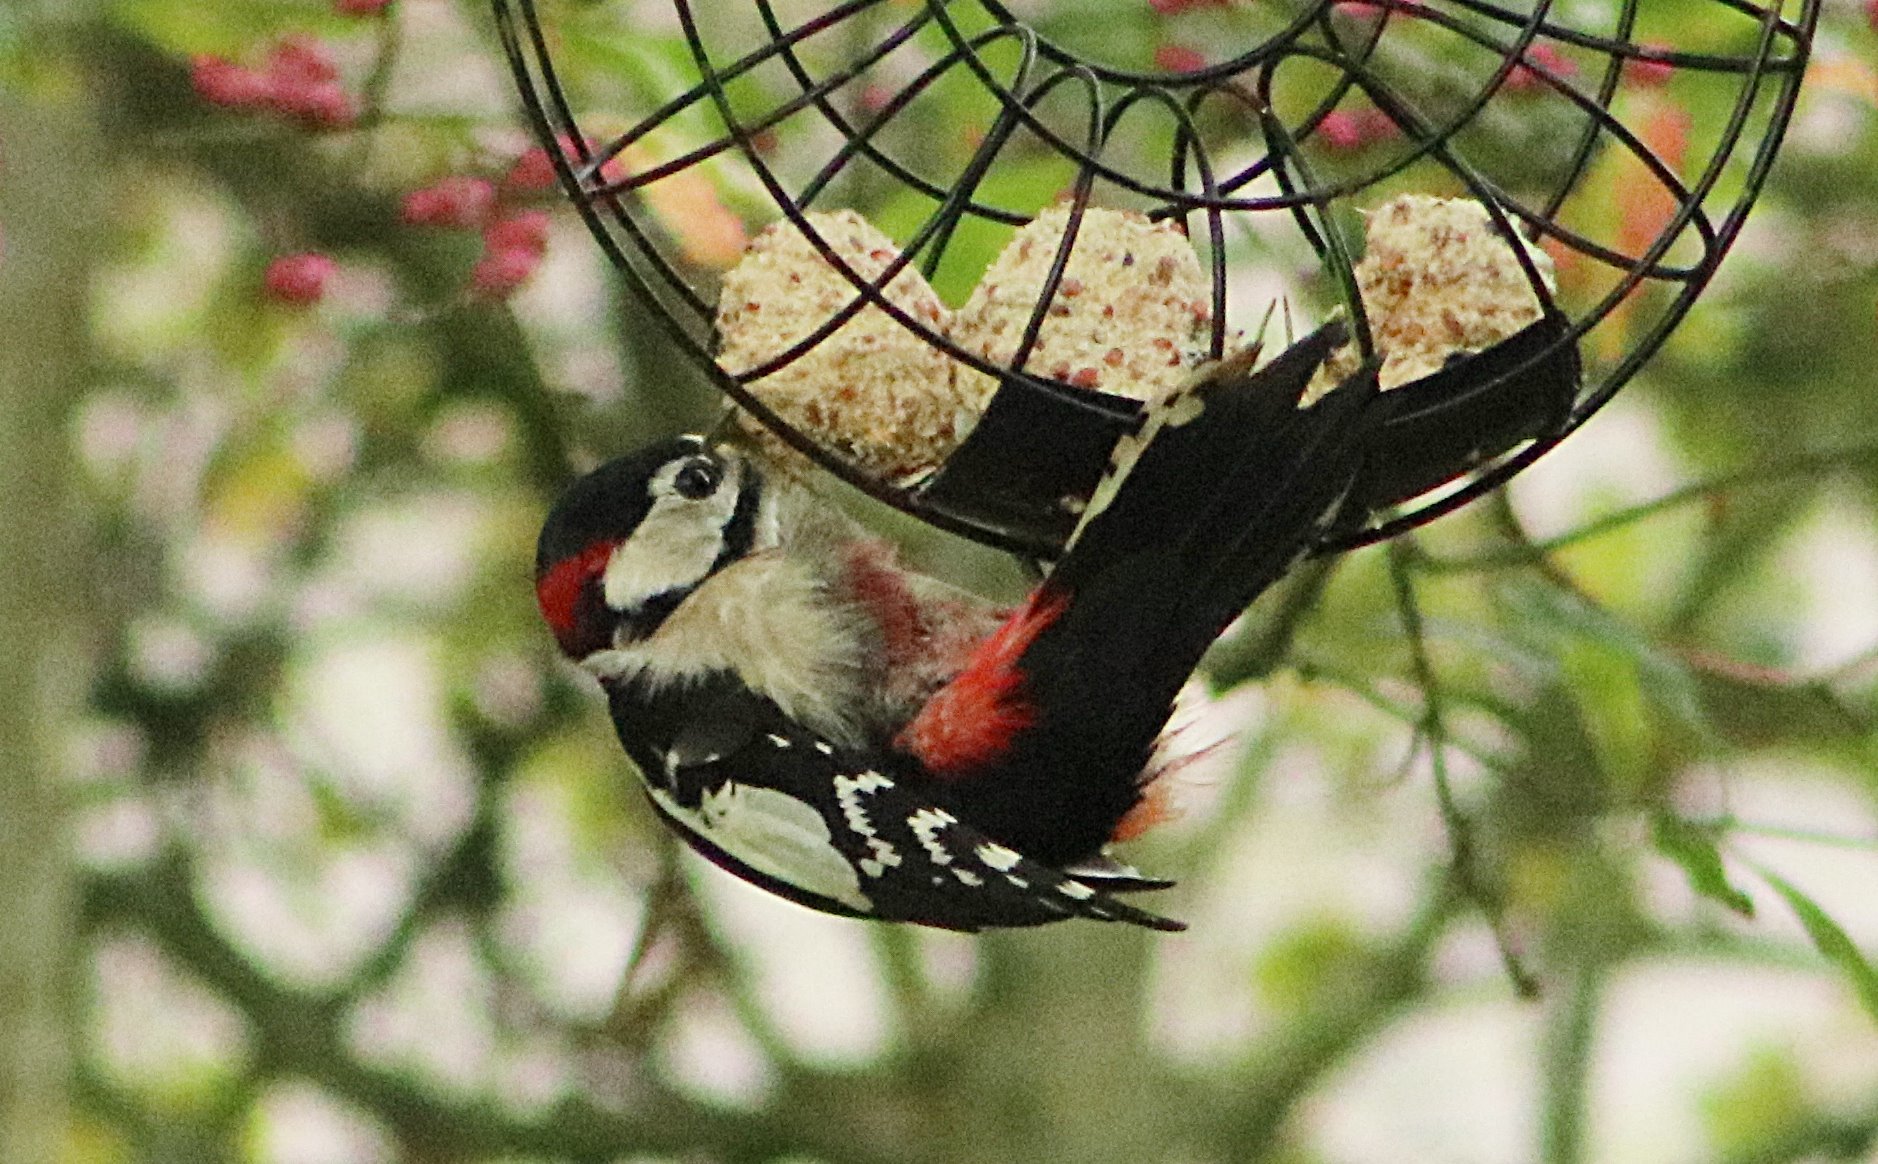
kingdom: Animalia
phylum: Chordata
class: Aves
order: Piciformes
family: Picidae
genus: Dendrocopos
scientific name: Dendrocopos major
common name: Great spotted woodpecker
